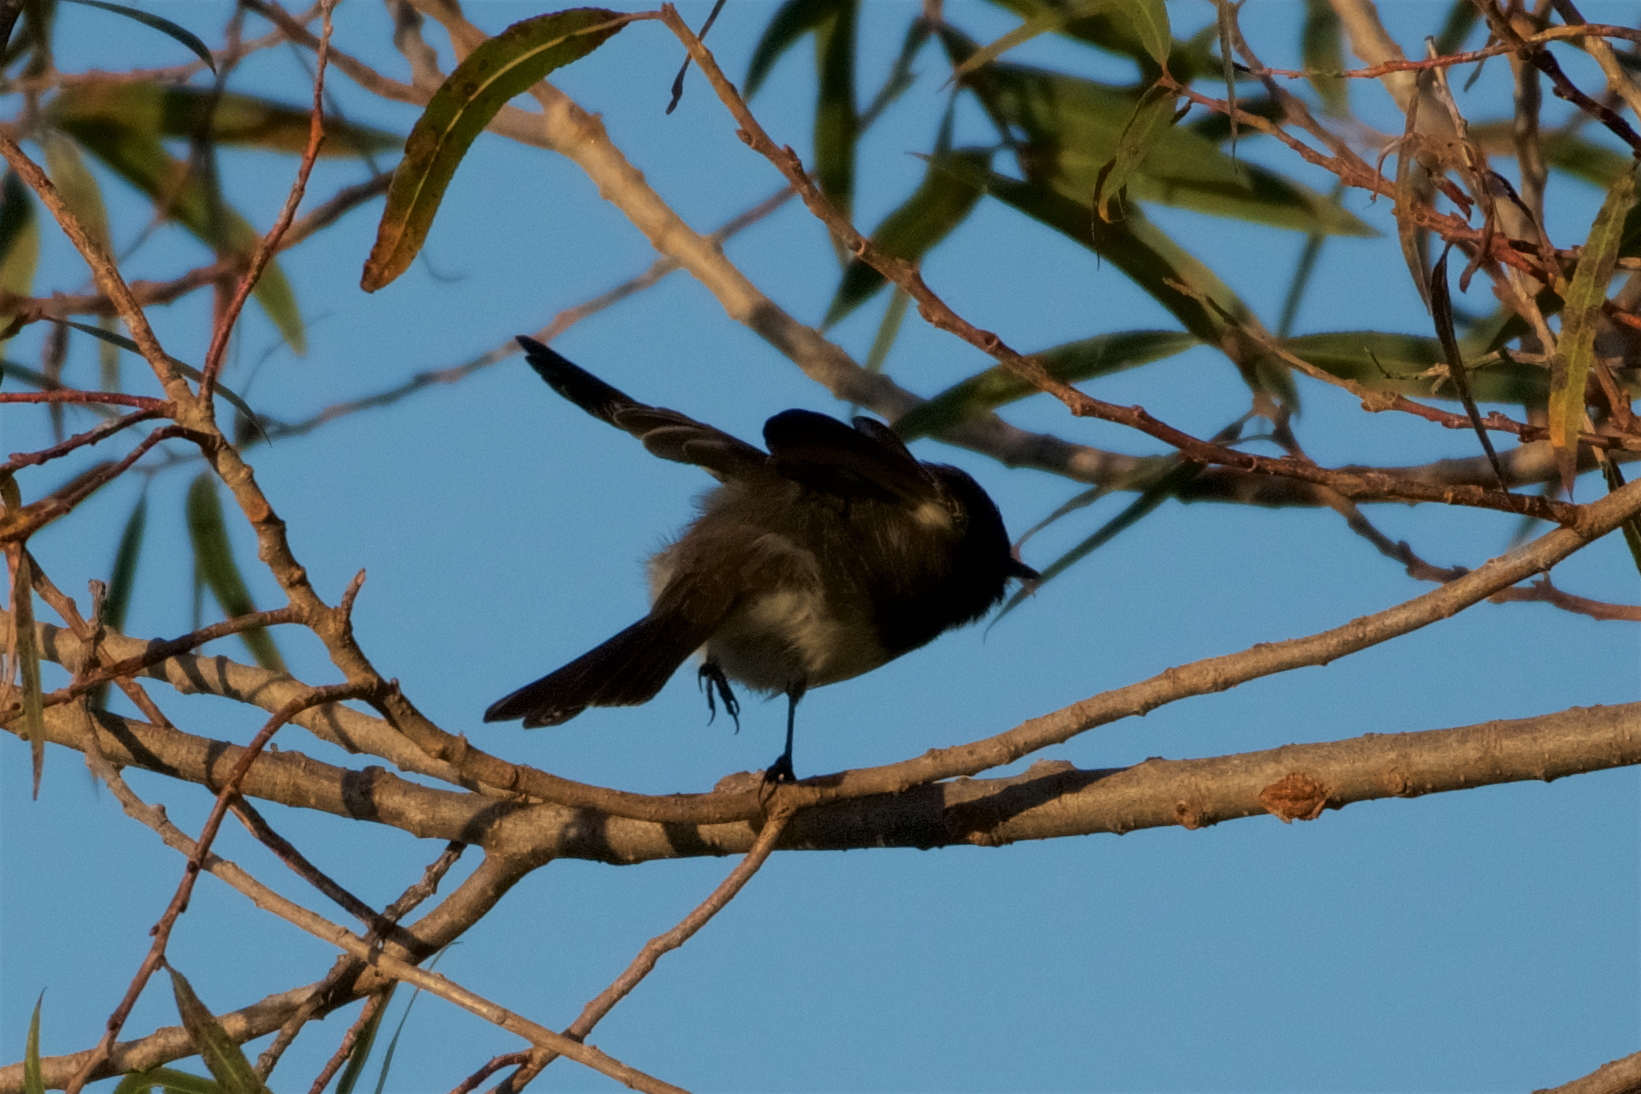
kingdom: Animalia
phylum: Chordata
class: Aves
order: Passeriformes
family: Tyrannidae
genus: Sayornis
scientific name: Sayornis nigricans
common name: Black phoebe
